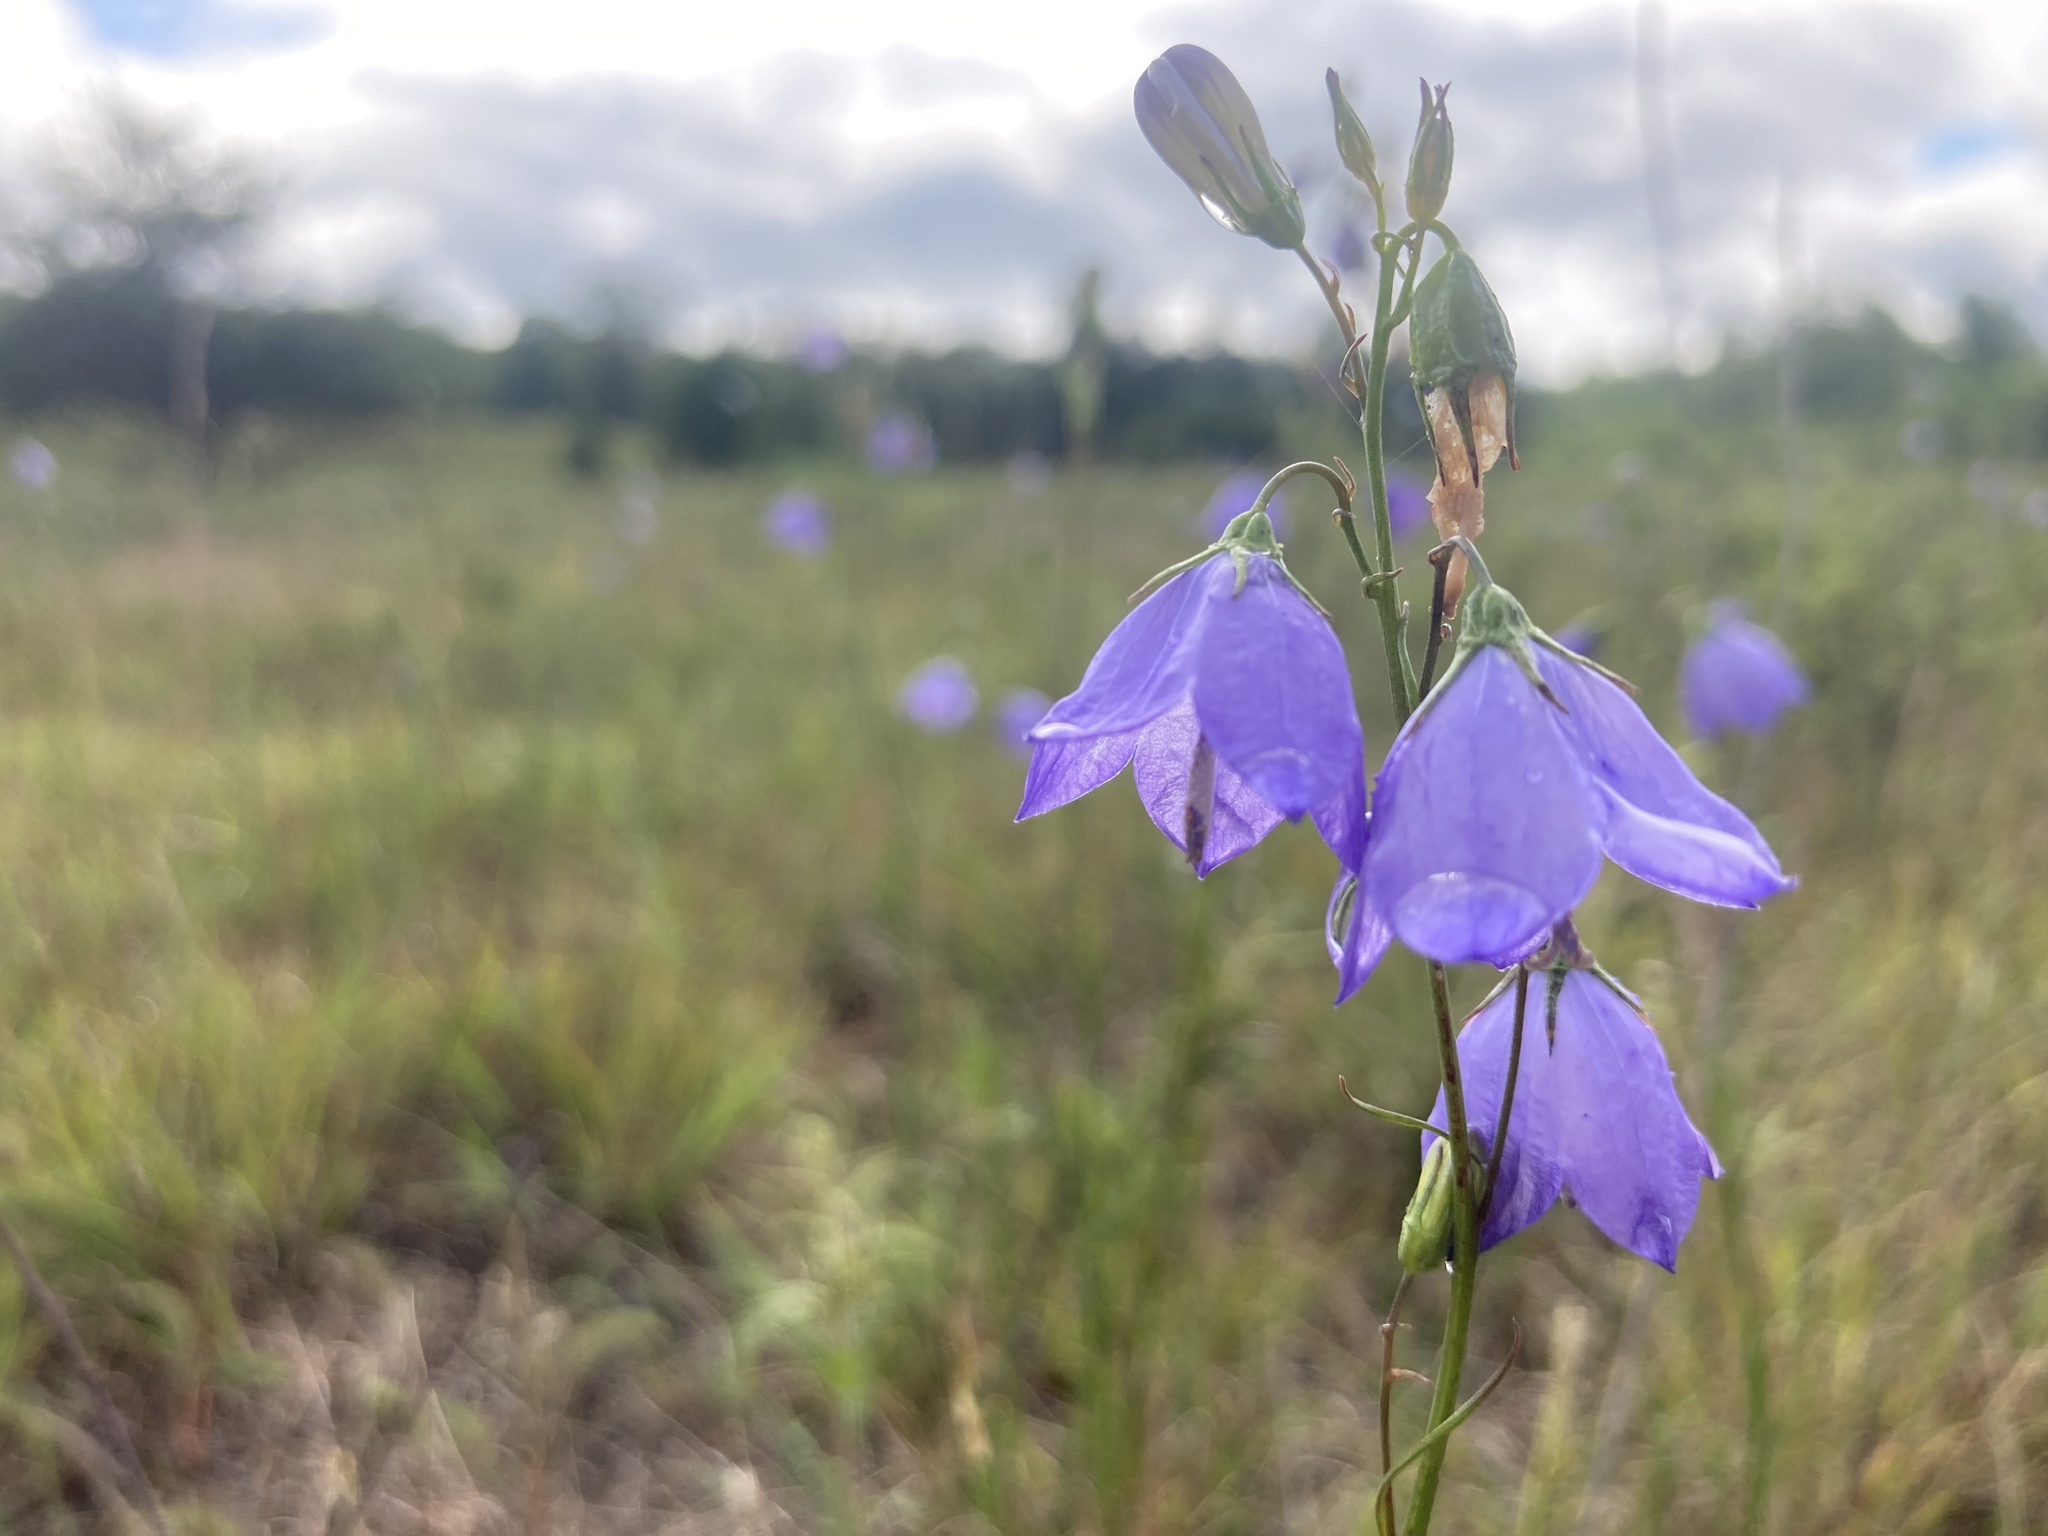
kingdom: Plantae
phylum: Tracheophyta
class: Magnoliopsida
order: Asterales
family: Campanulaceae
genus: Campanula
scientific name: Campanula intercedens
